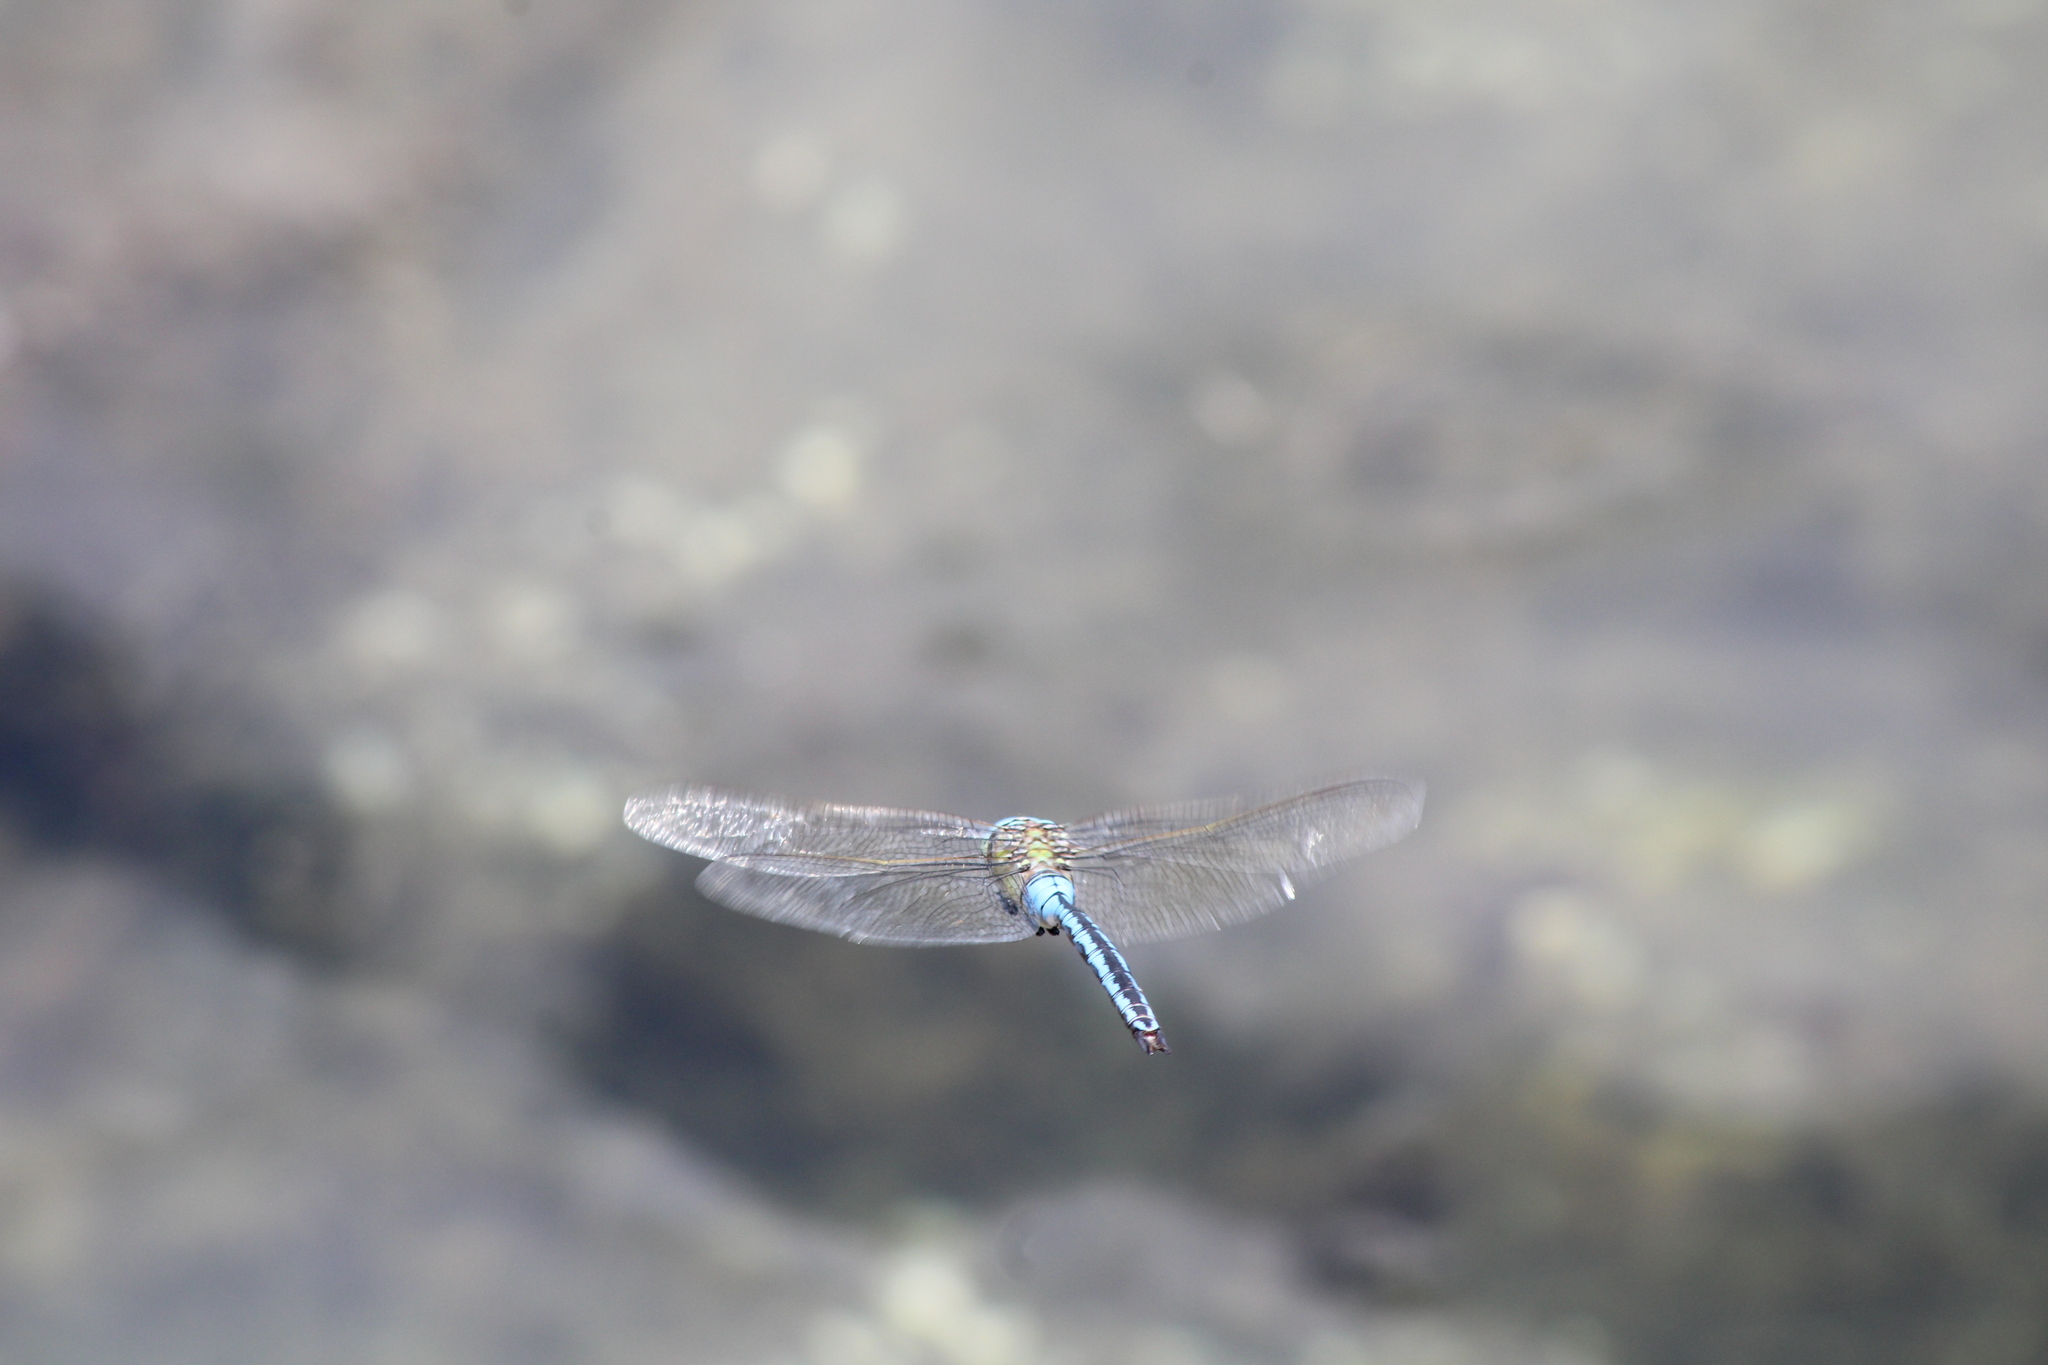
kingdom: Animalia
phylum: Arthropoda
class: Insecta
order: Odonata
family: Aeshnidae
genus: Anax
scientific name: Anax imperator
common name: Emperor dragonfly
